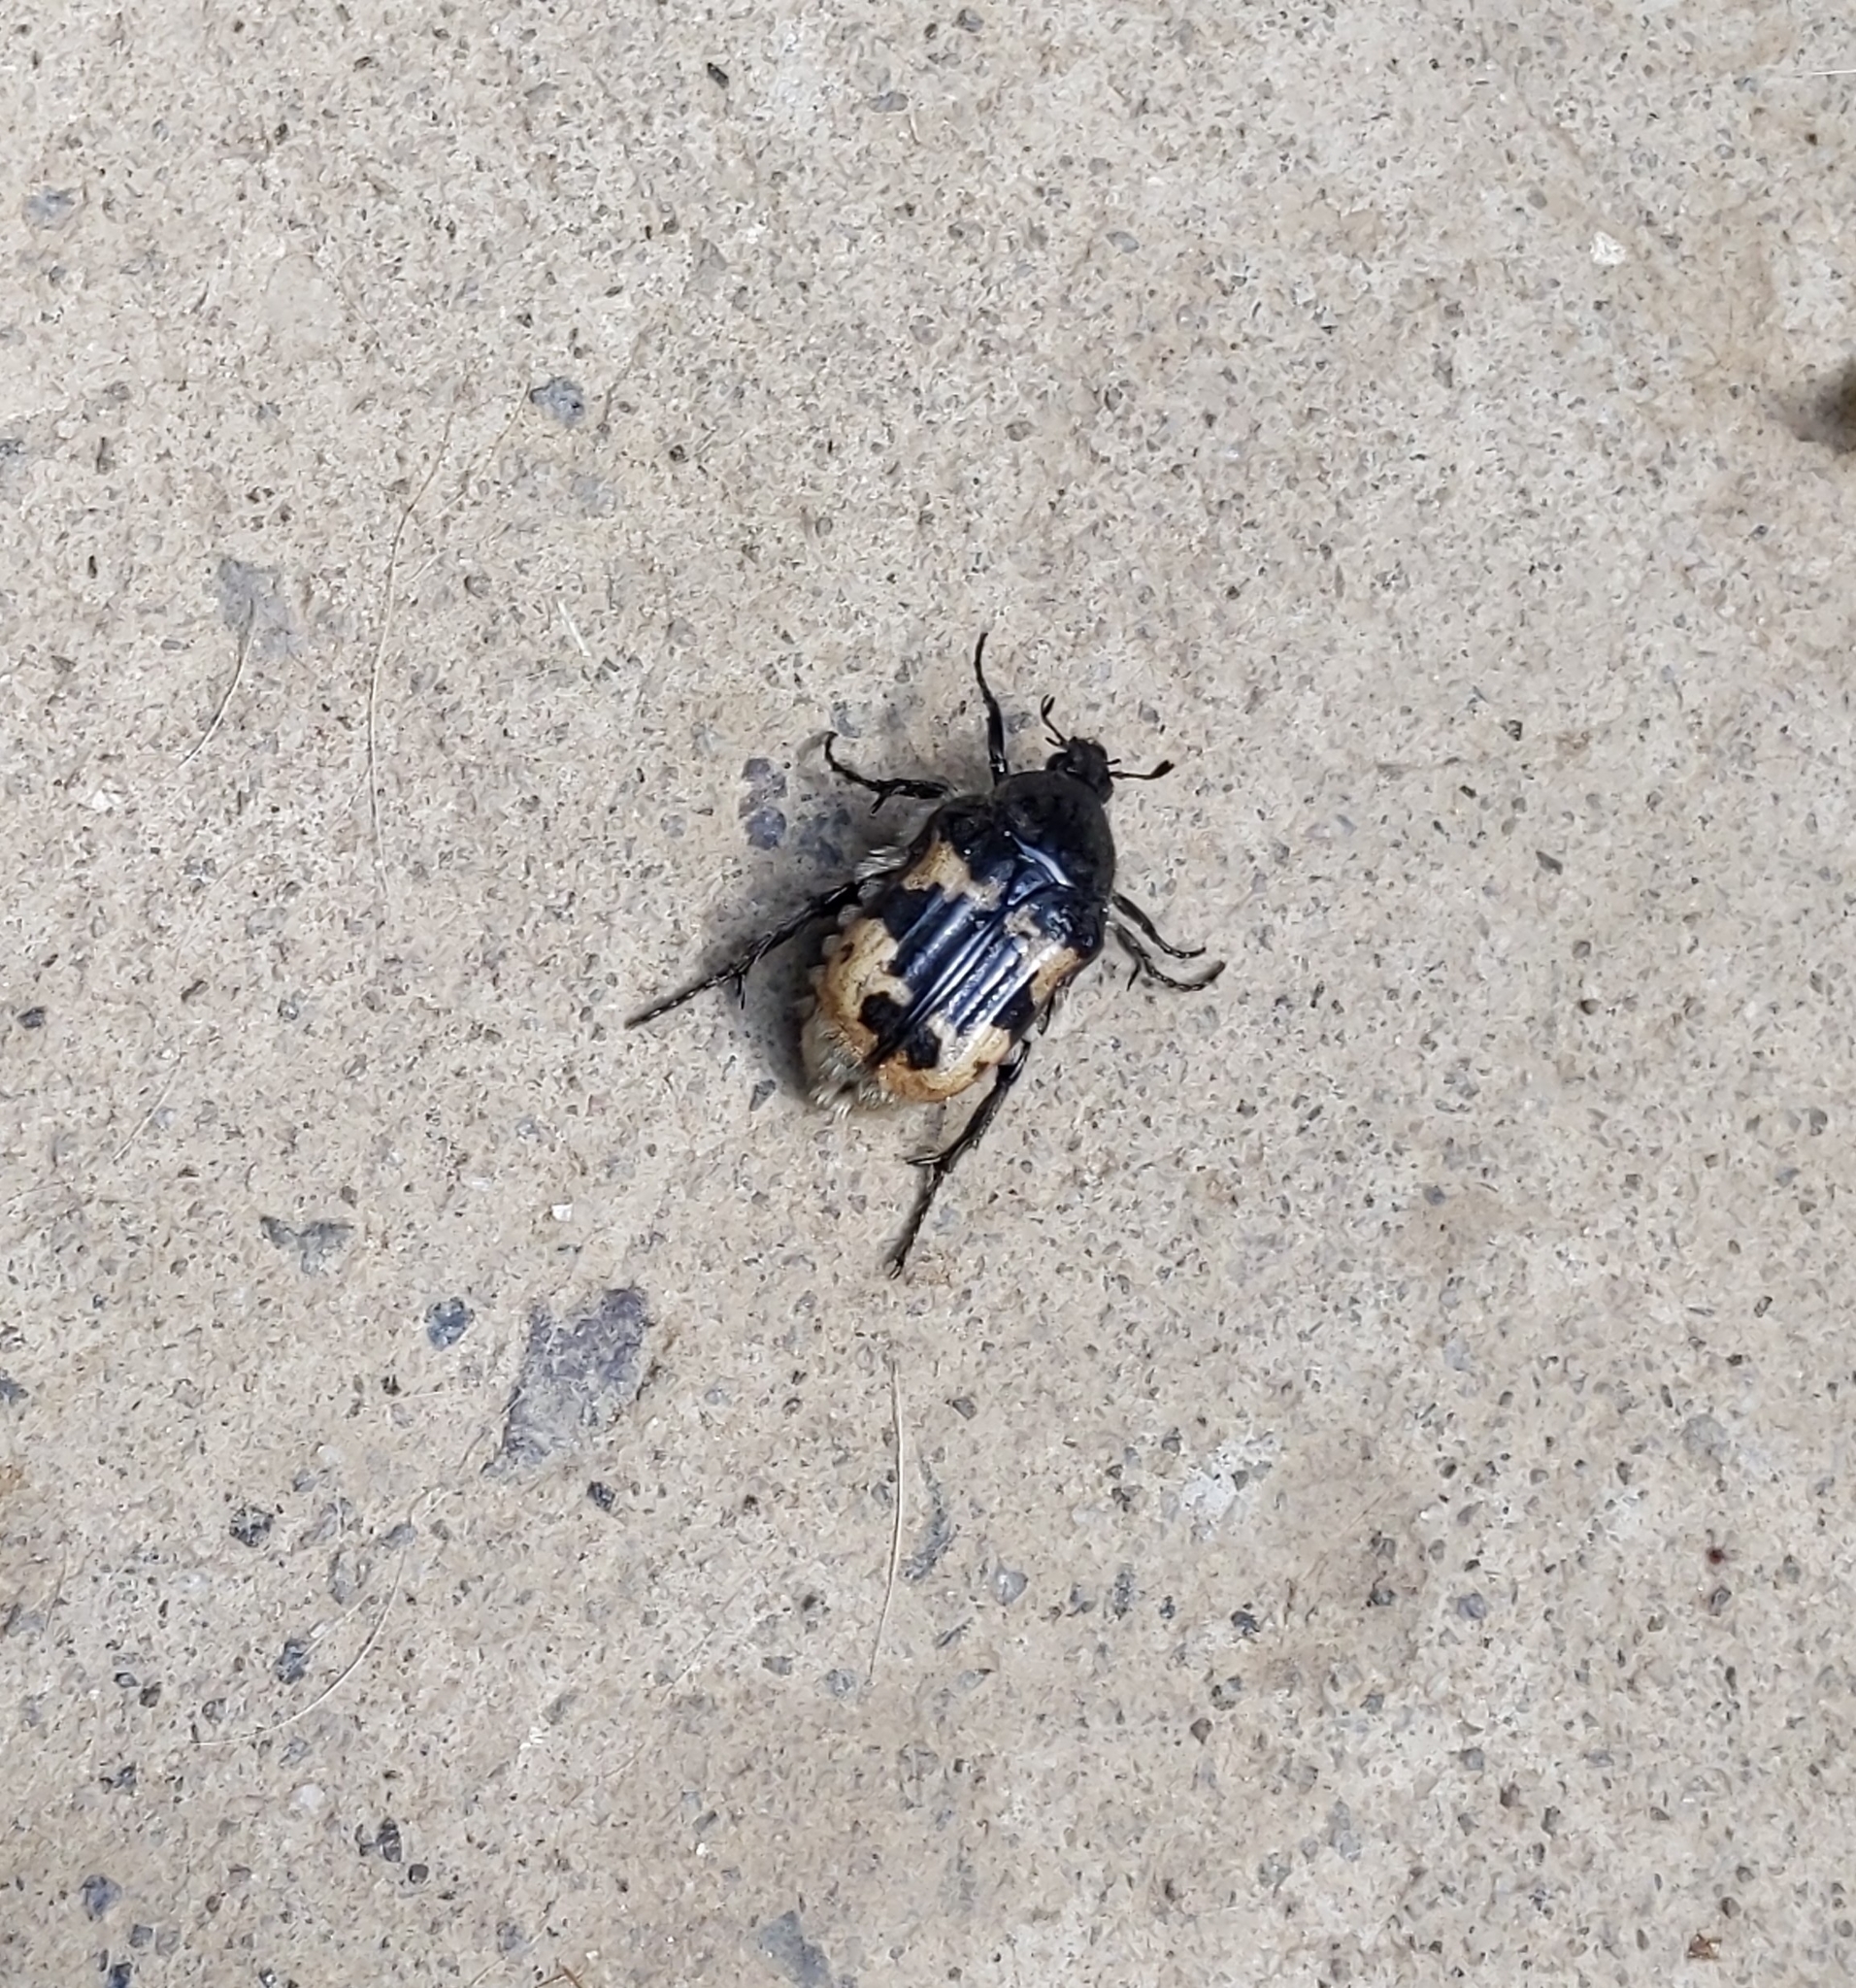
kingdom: Animalia
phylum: Arthropoda
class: Insecta
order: Coleoptera
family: Scarabaeidae
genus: Euphoria
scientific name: Euphoria basalis
